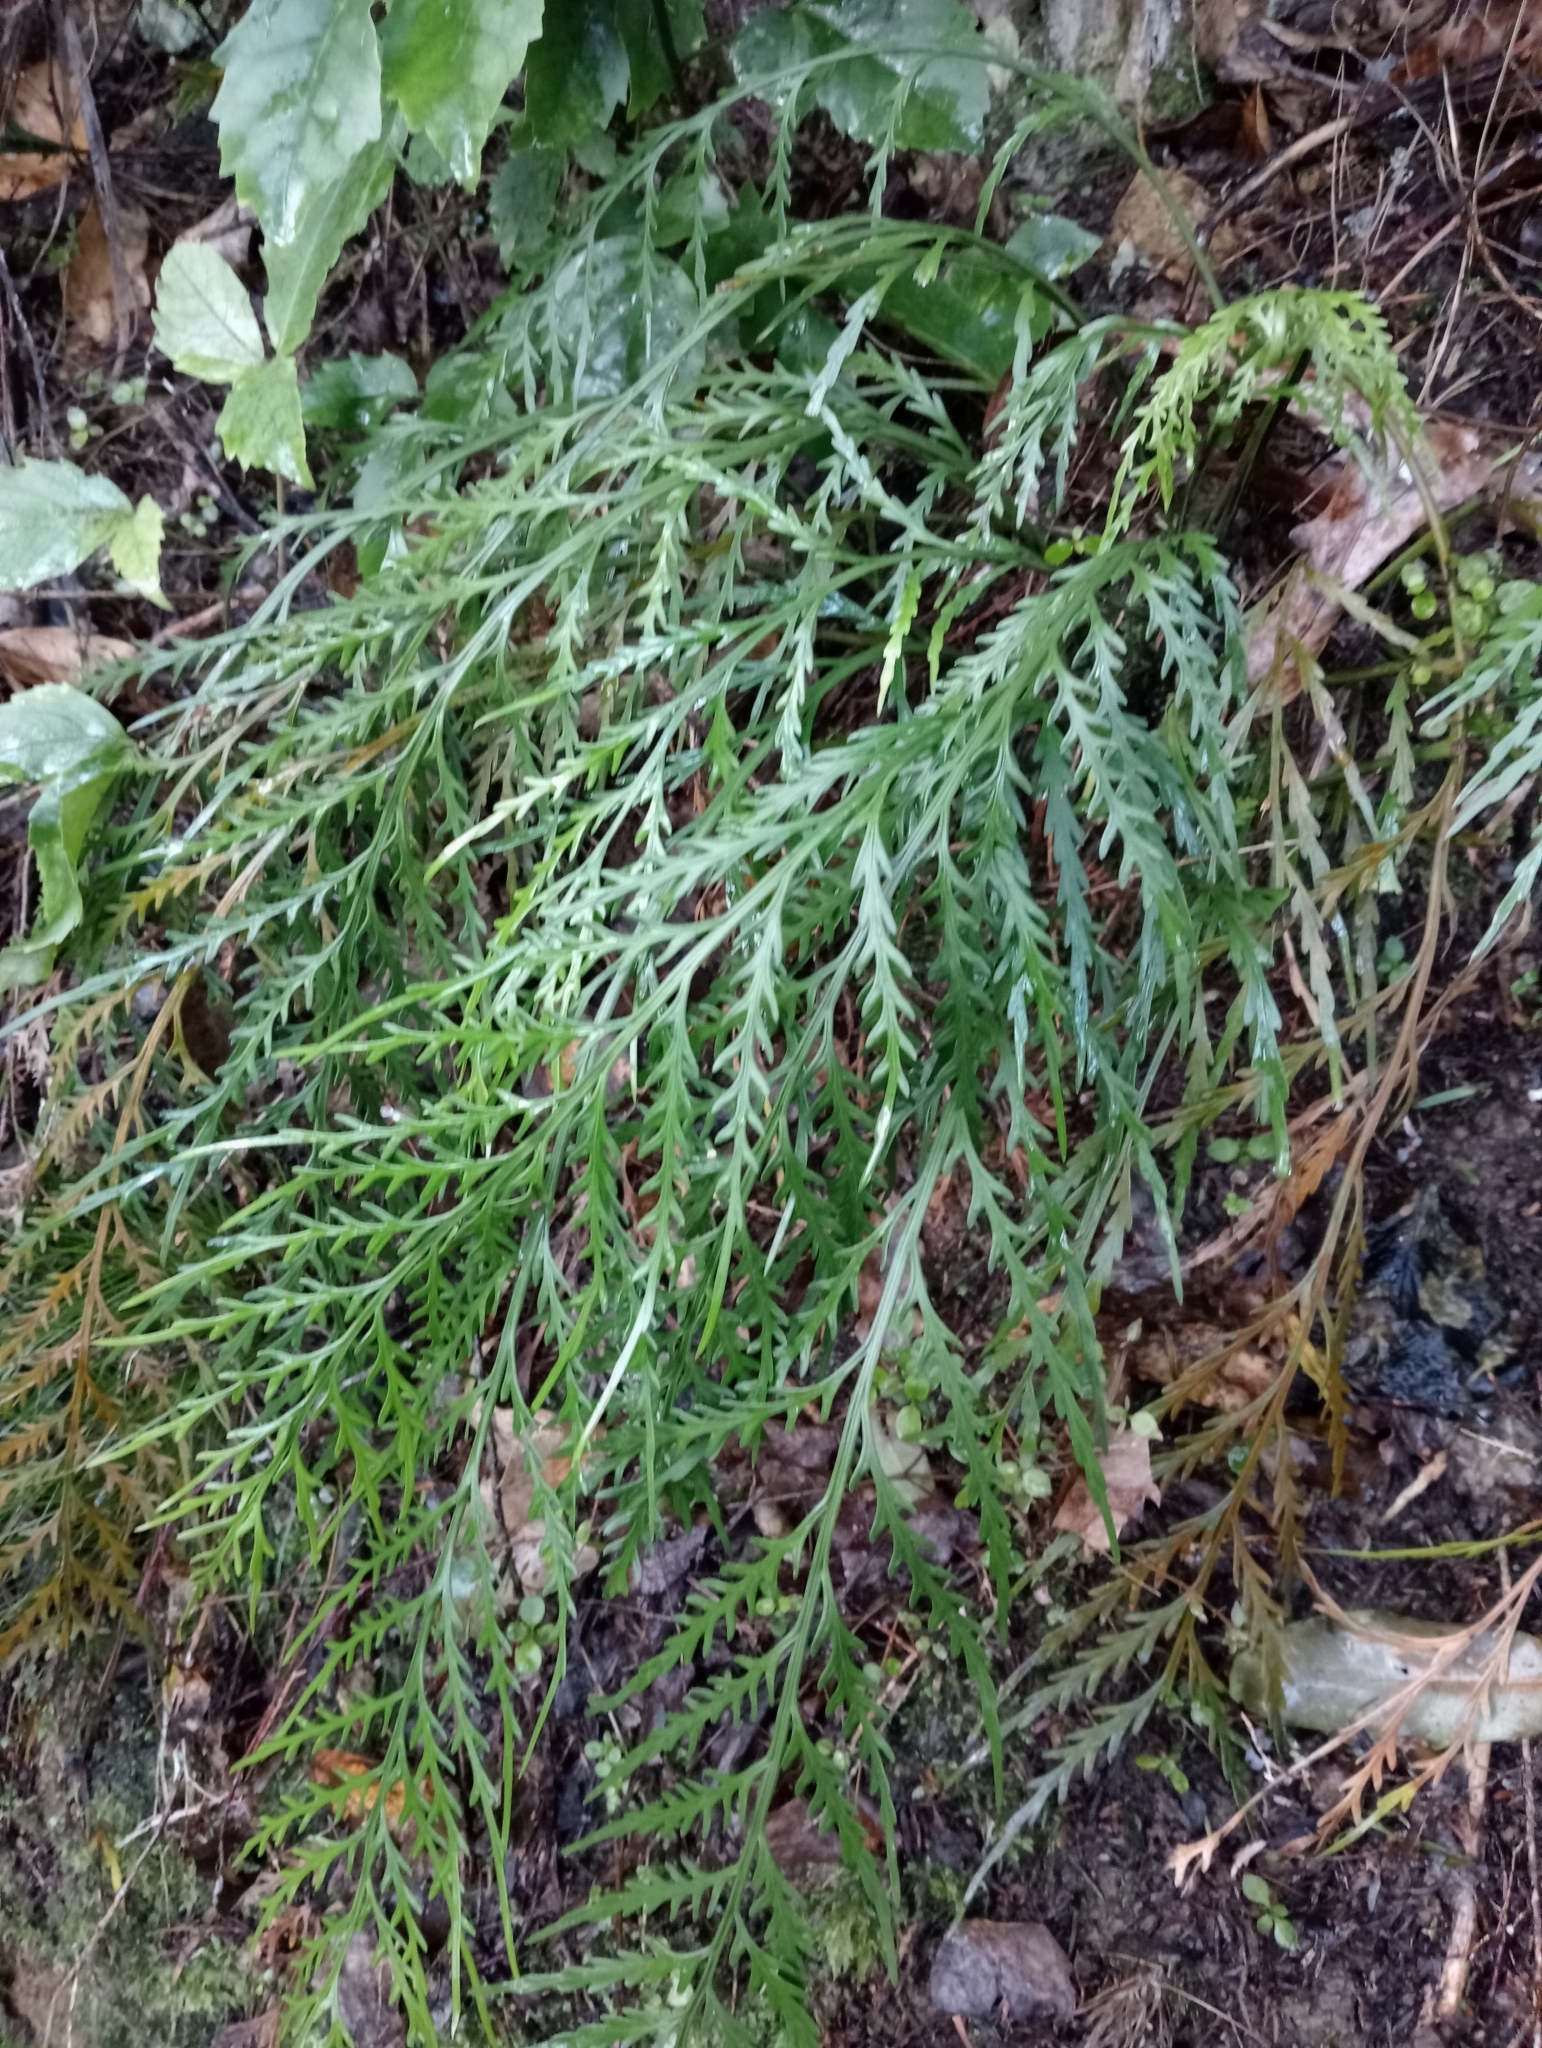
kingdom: Plantae
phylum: Tracheophyta
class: Polypodiopsida
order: Polypodiales
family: Aspleniaceae
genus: Asplenium
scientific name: Asplenium flaccidum
